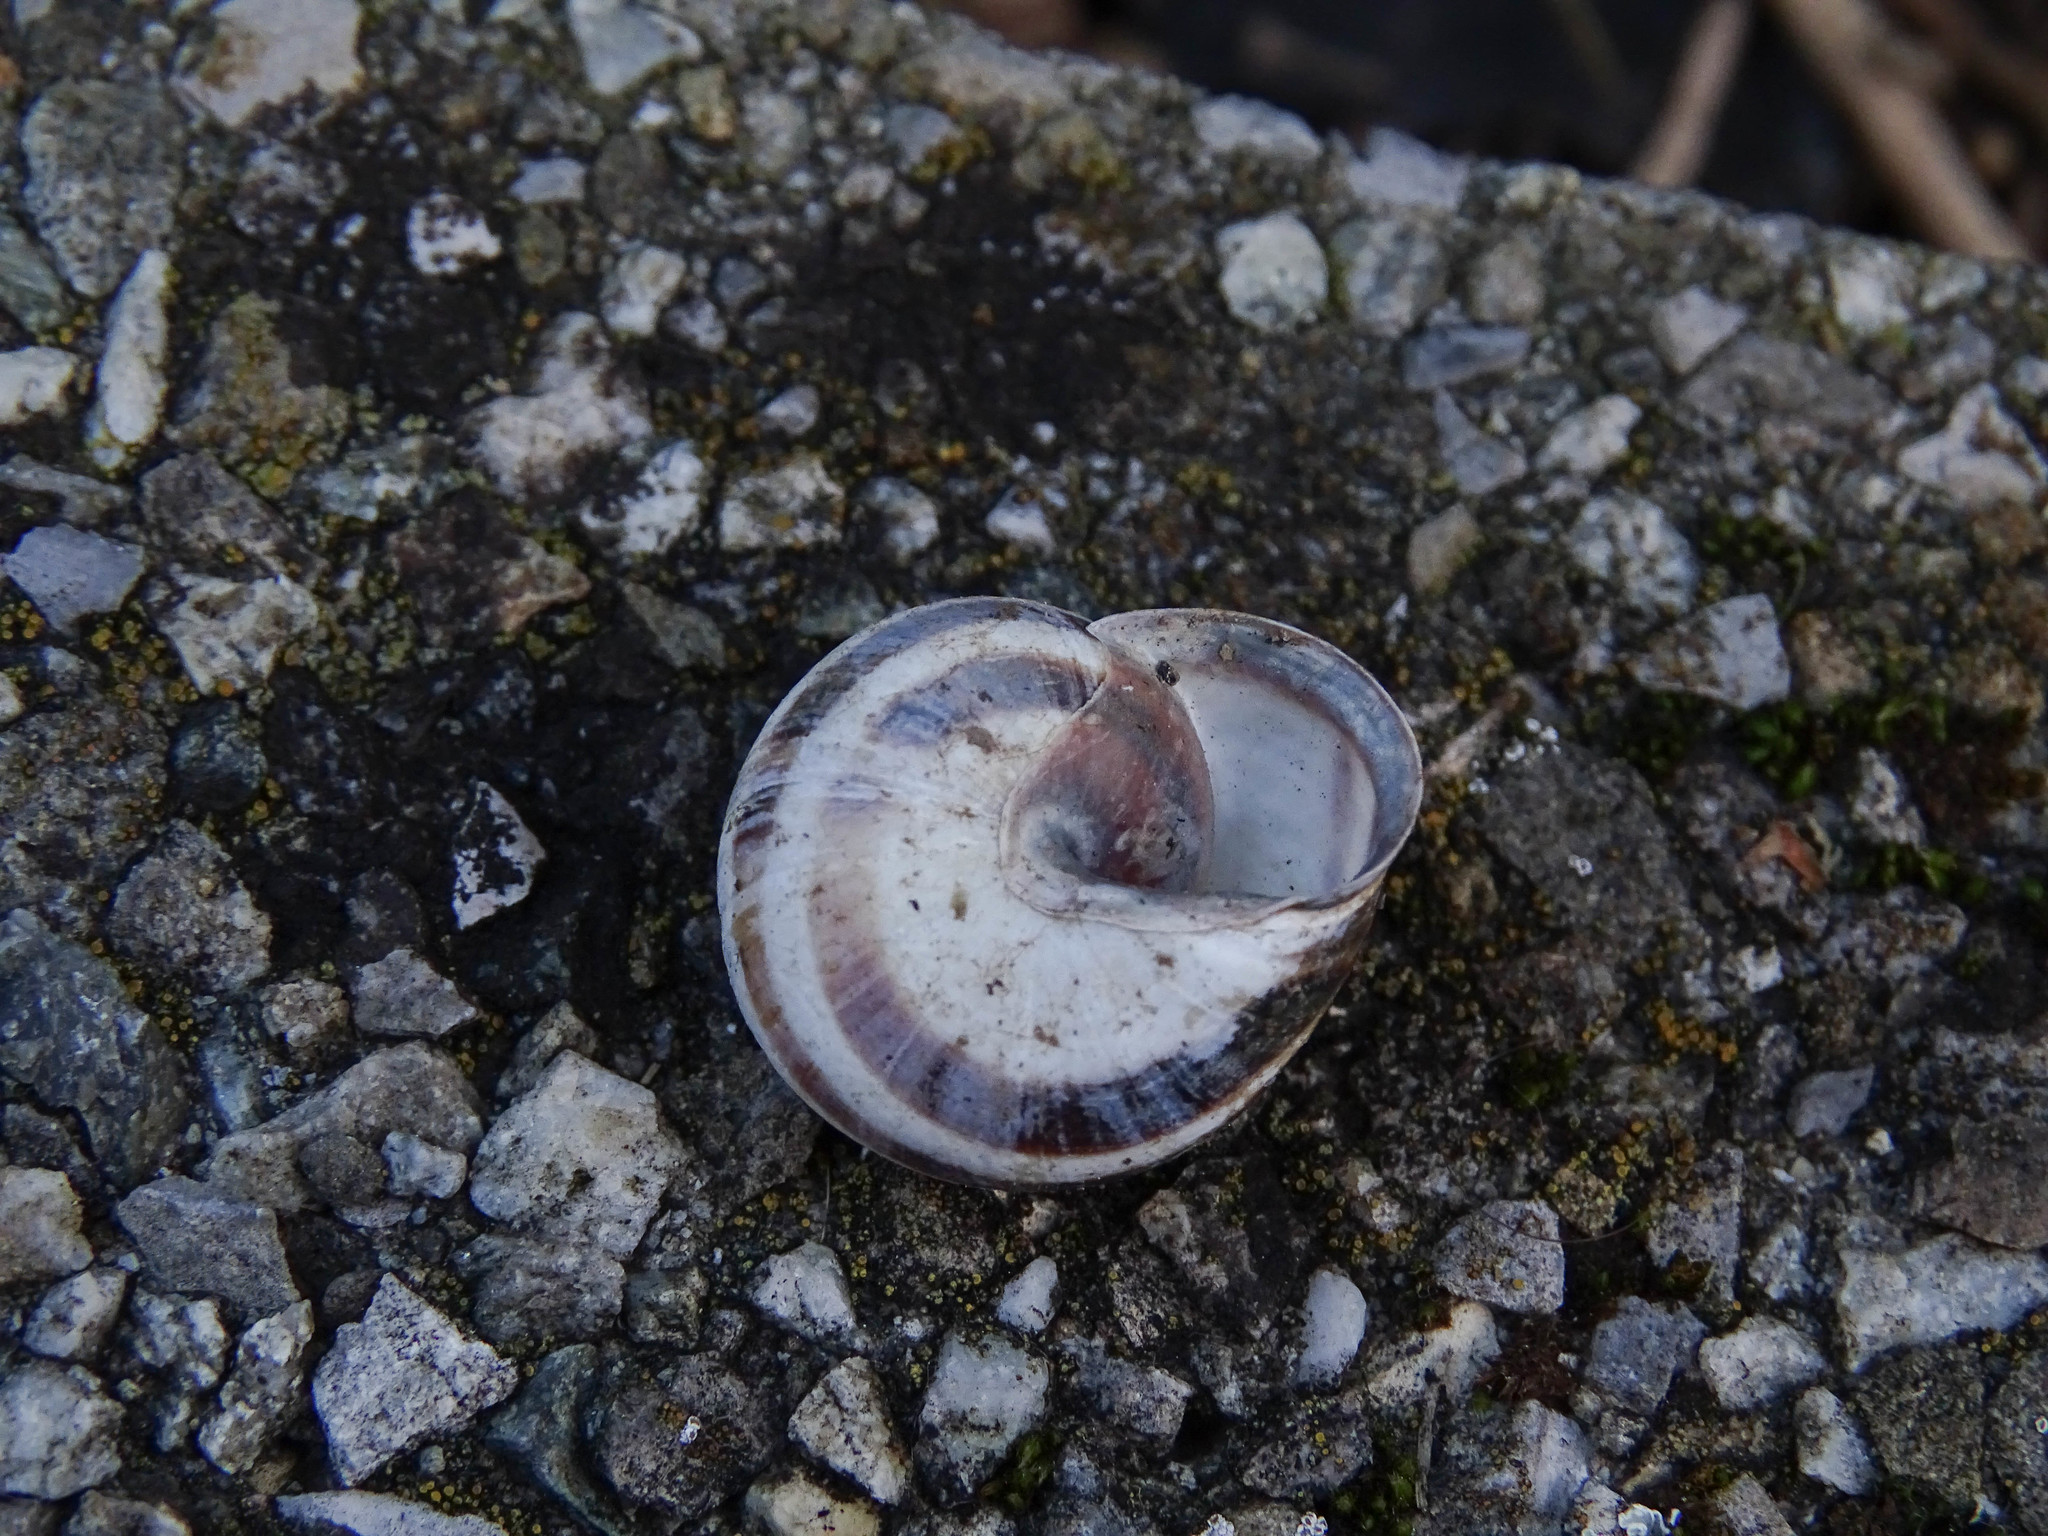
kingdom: Animalia
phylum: Mollusca
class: Gastropoda
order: Stylommatophora
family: Helicidae
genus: Cepaea
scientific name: Cepaea nemoralis
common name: Grovesnail
